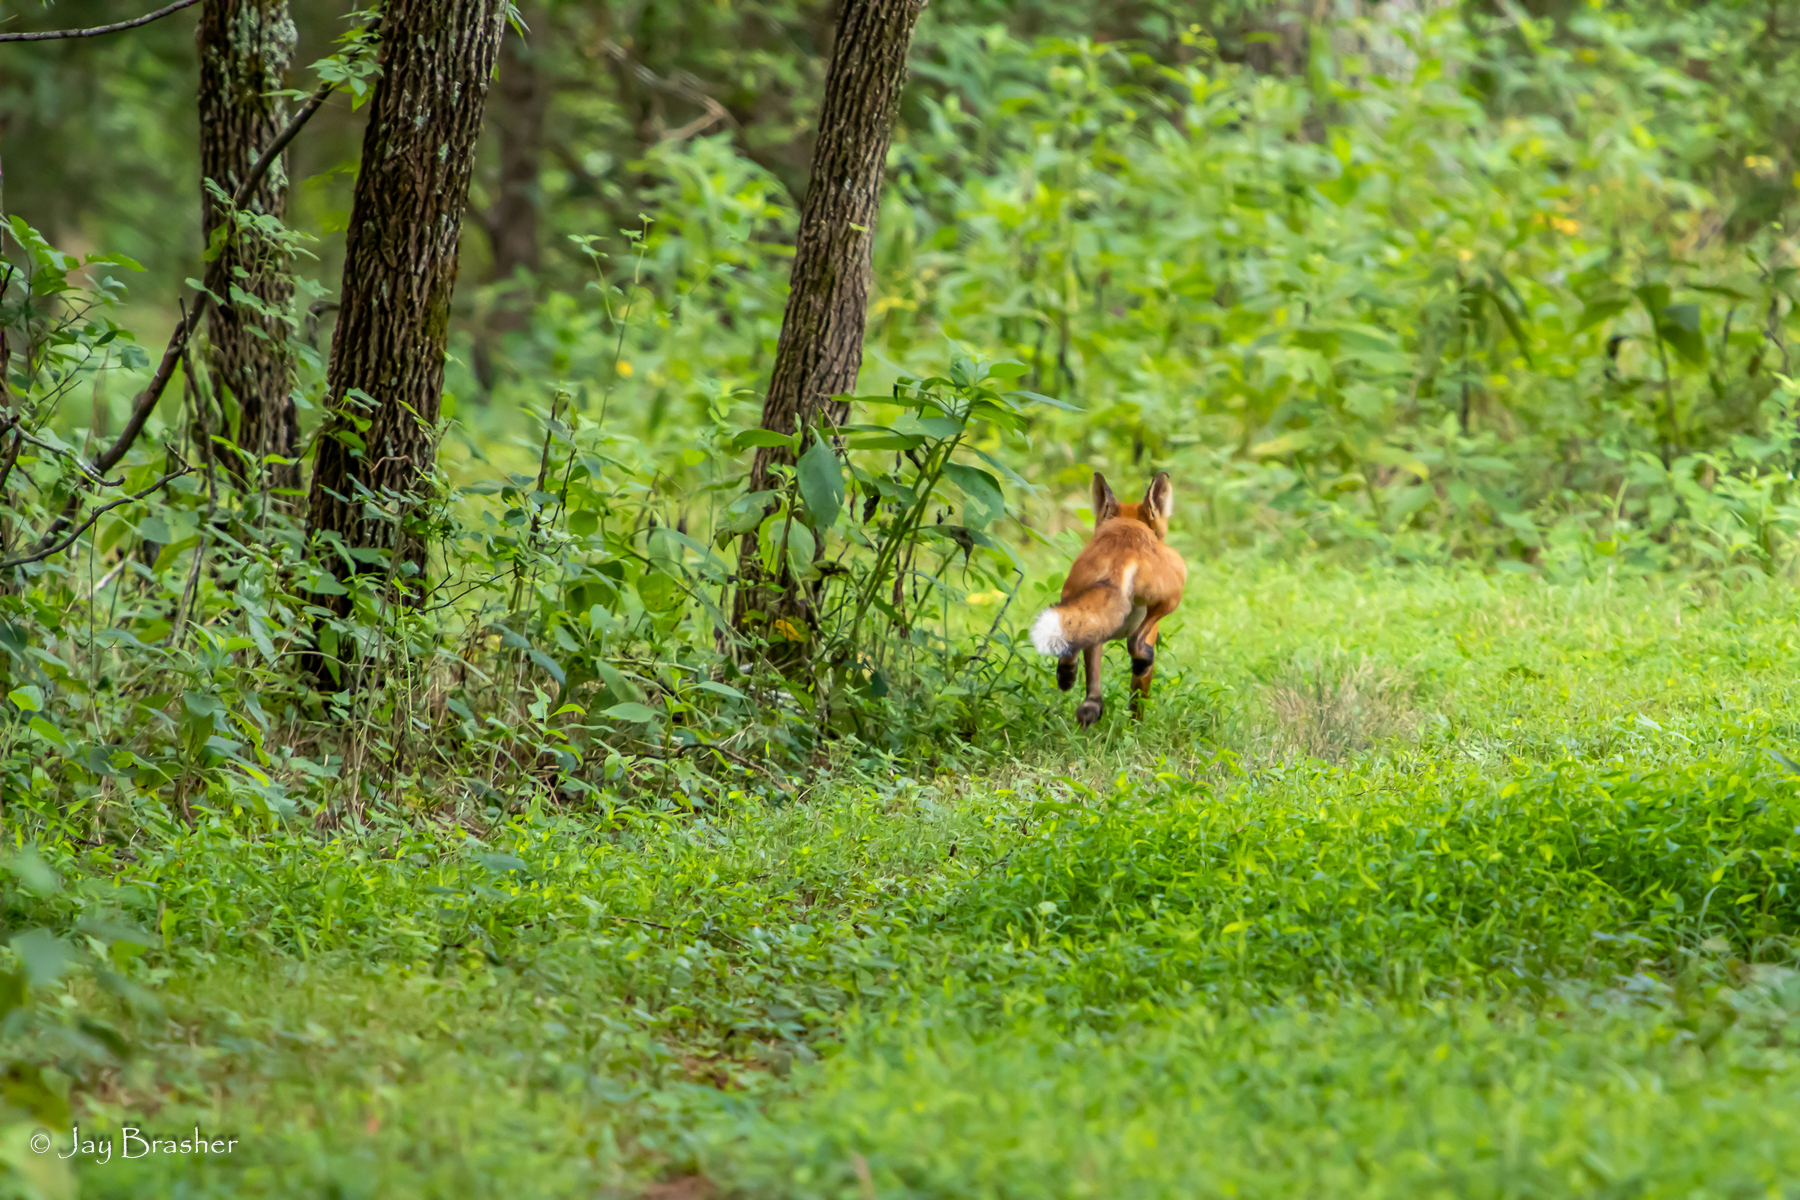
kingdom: Animalia
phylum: Chordata
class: Mammalia
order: Carnivora
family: Canidae
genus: Vulpes
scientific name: Vulpes vulpes
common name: Red fox
